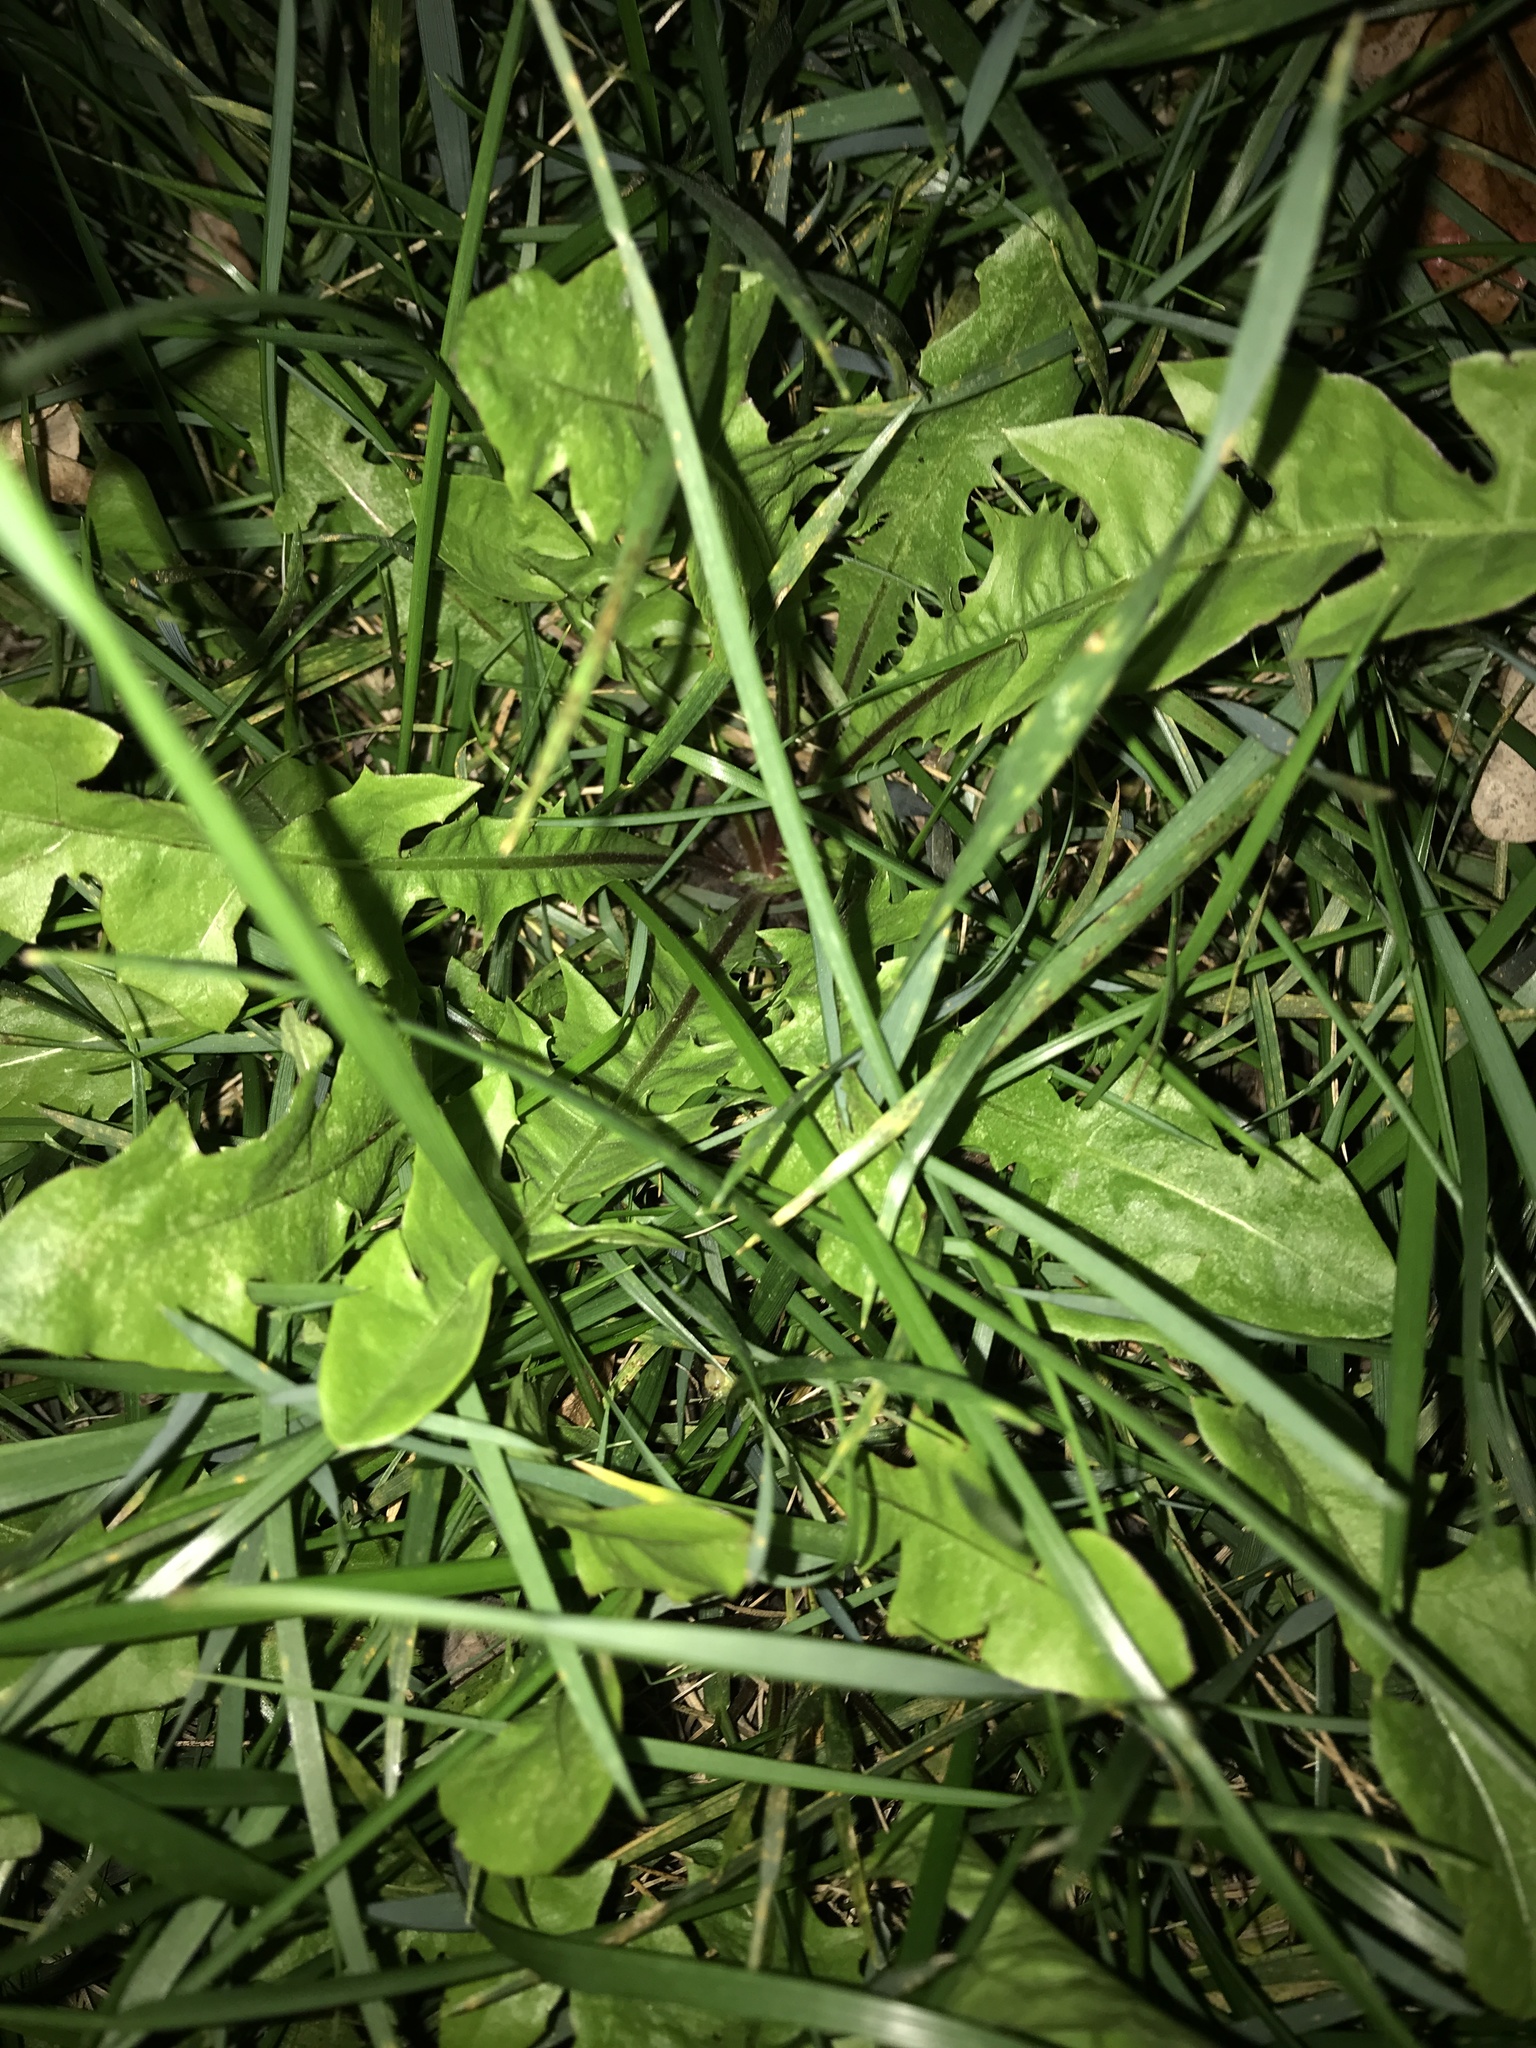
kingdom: Plantae
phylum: Tracheophyta
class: Magnoliopsida
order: Asterales
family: Asteraceae
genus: Taraxacum
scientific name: Taraxacum officinale
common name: Common dandelion
